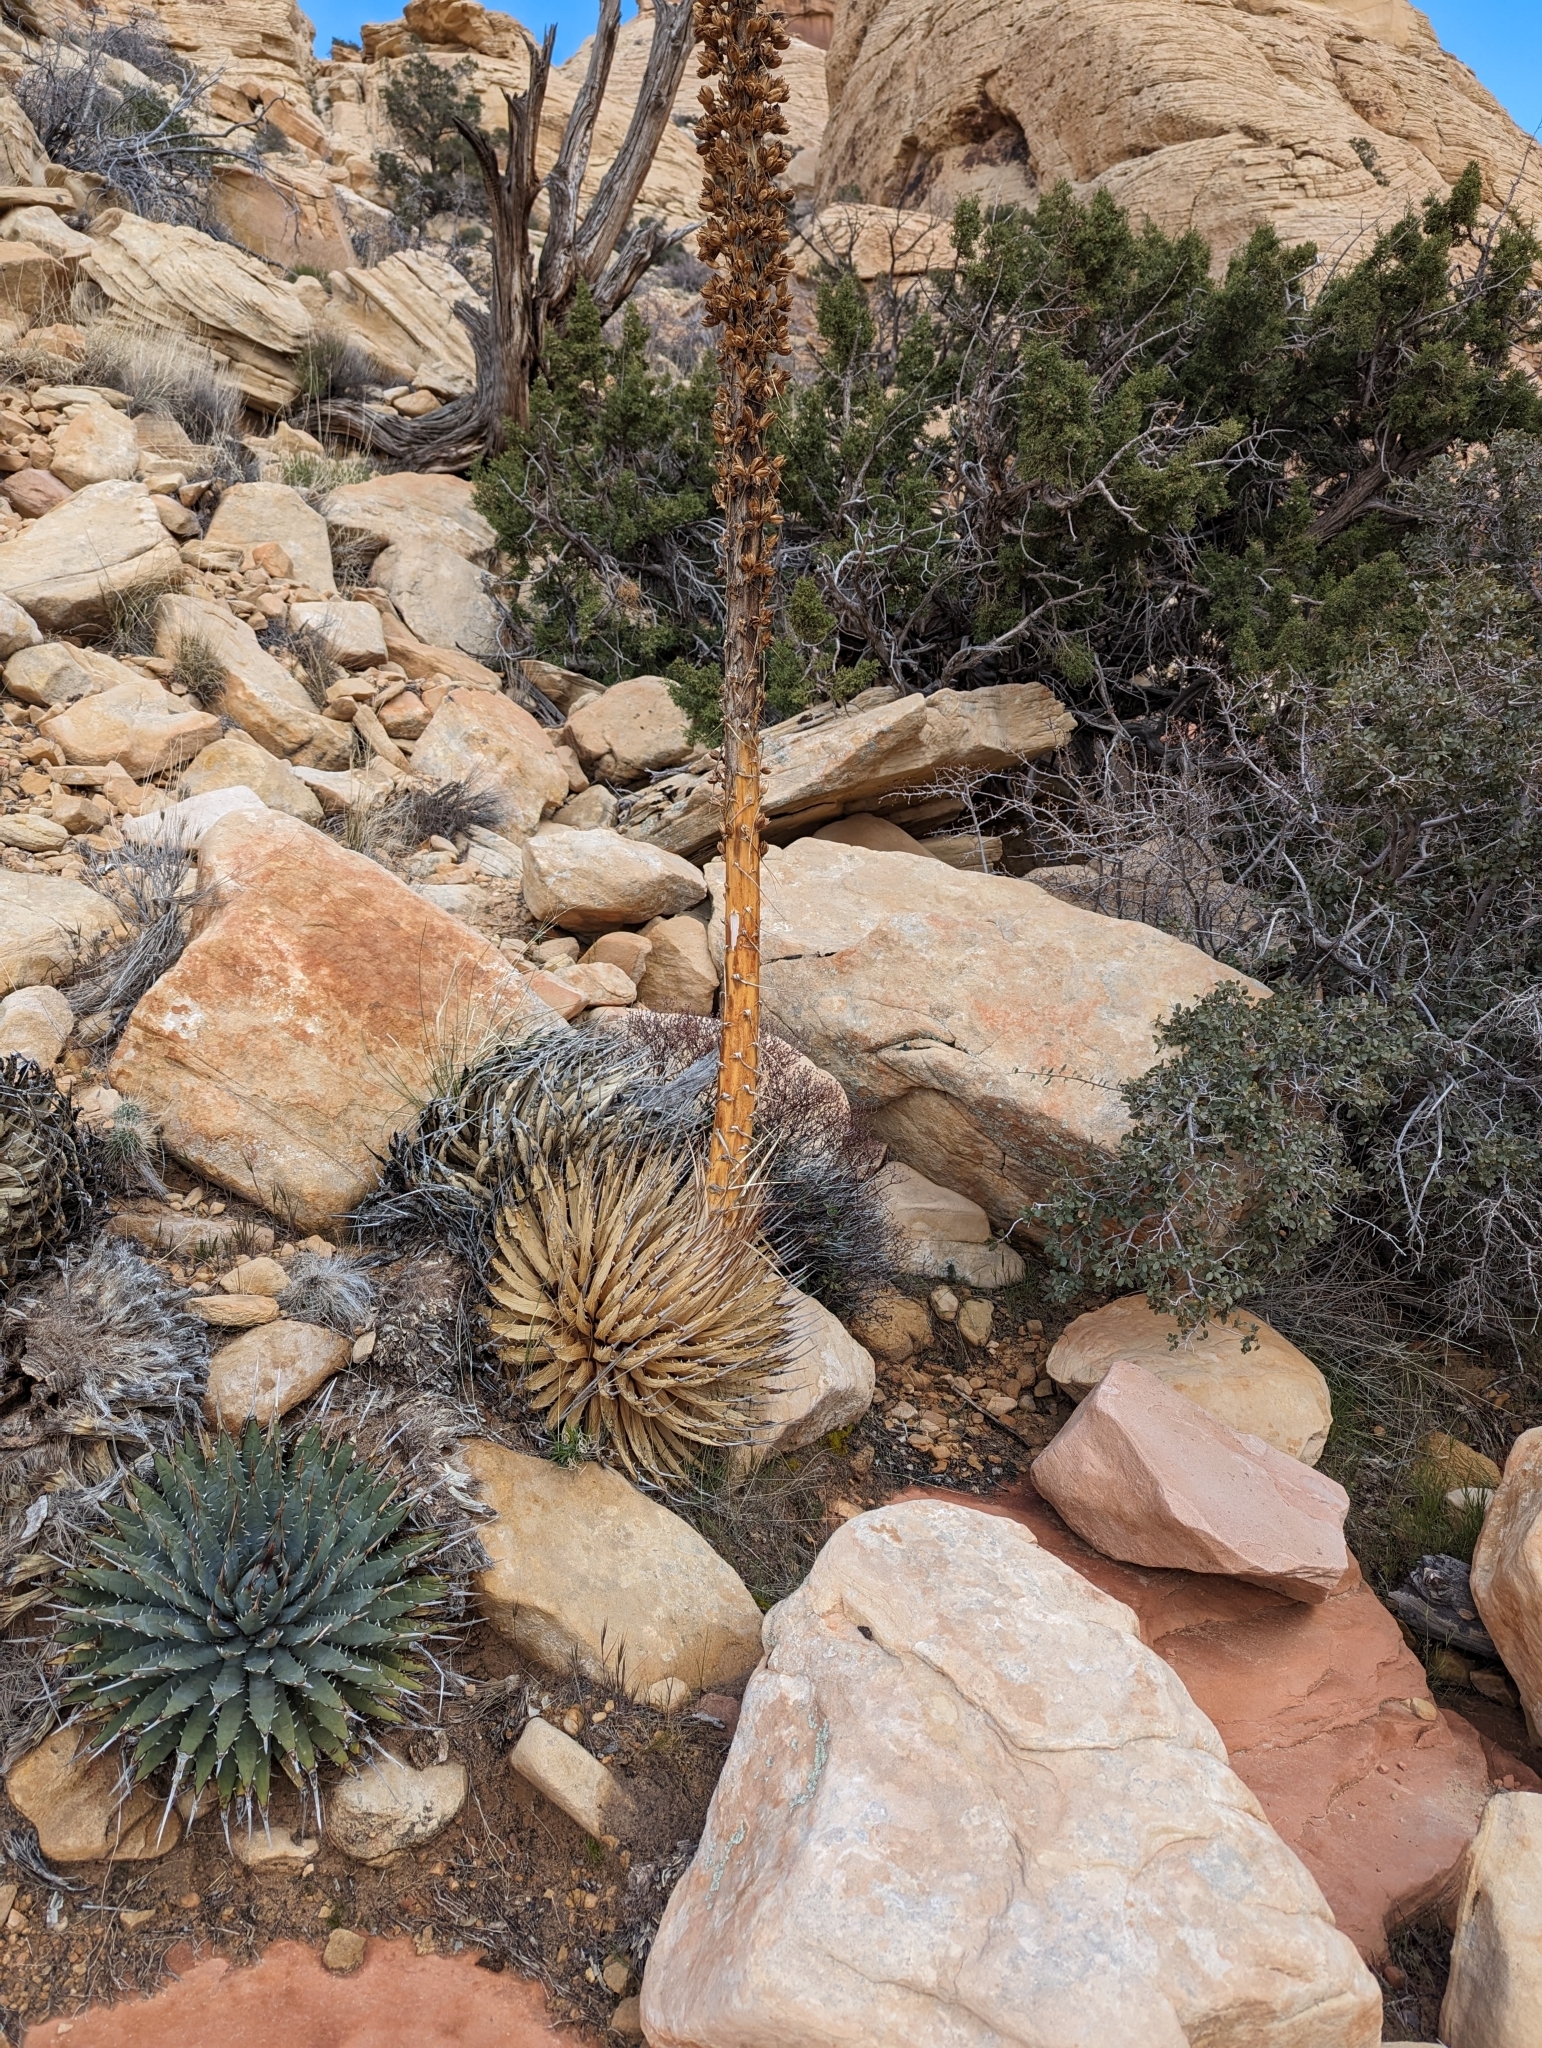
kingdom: Plantae
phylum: Tracheophyta
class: Liliopsida
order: Asparagales
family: Asparagaceae
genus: Agave
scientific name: Agave utahensis
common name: Utah agave
